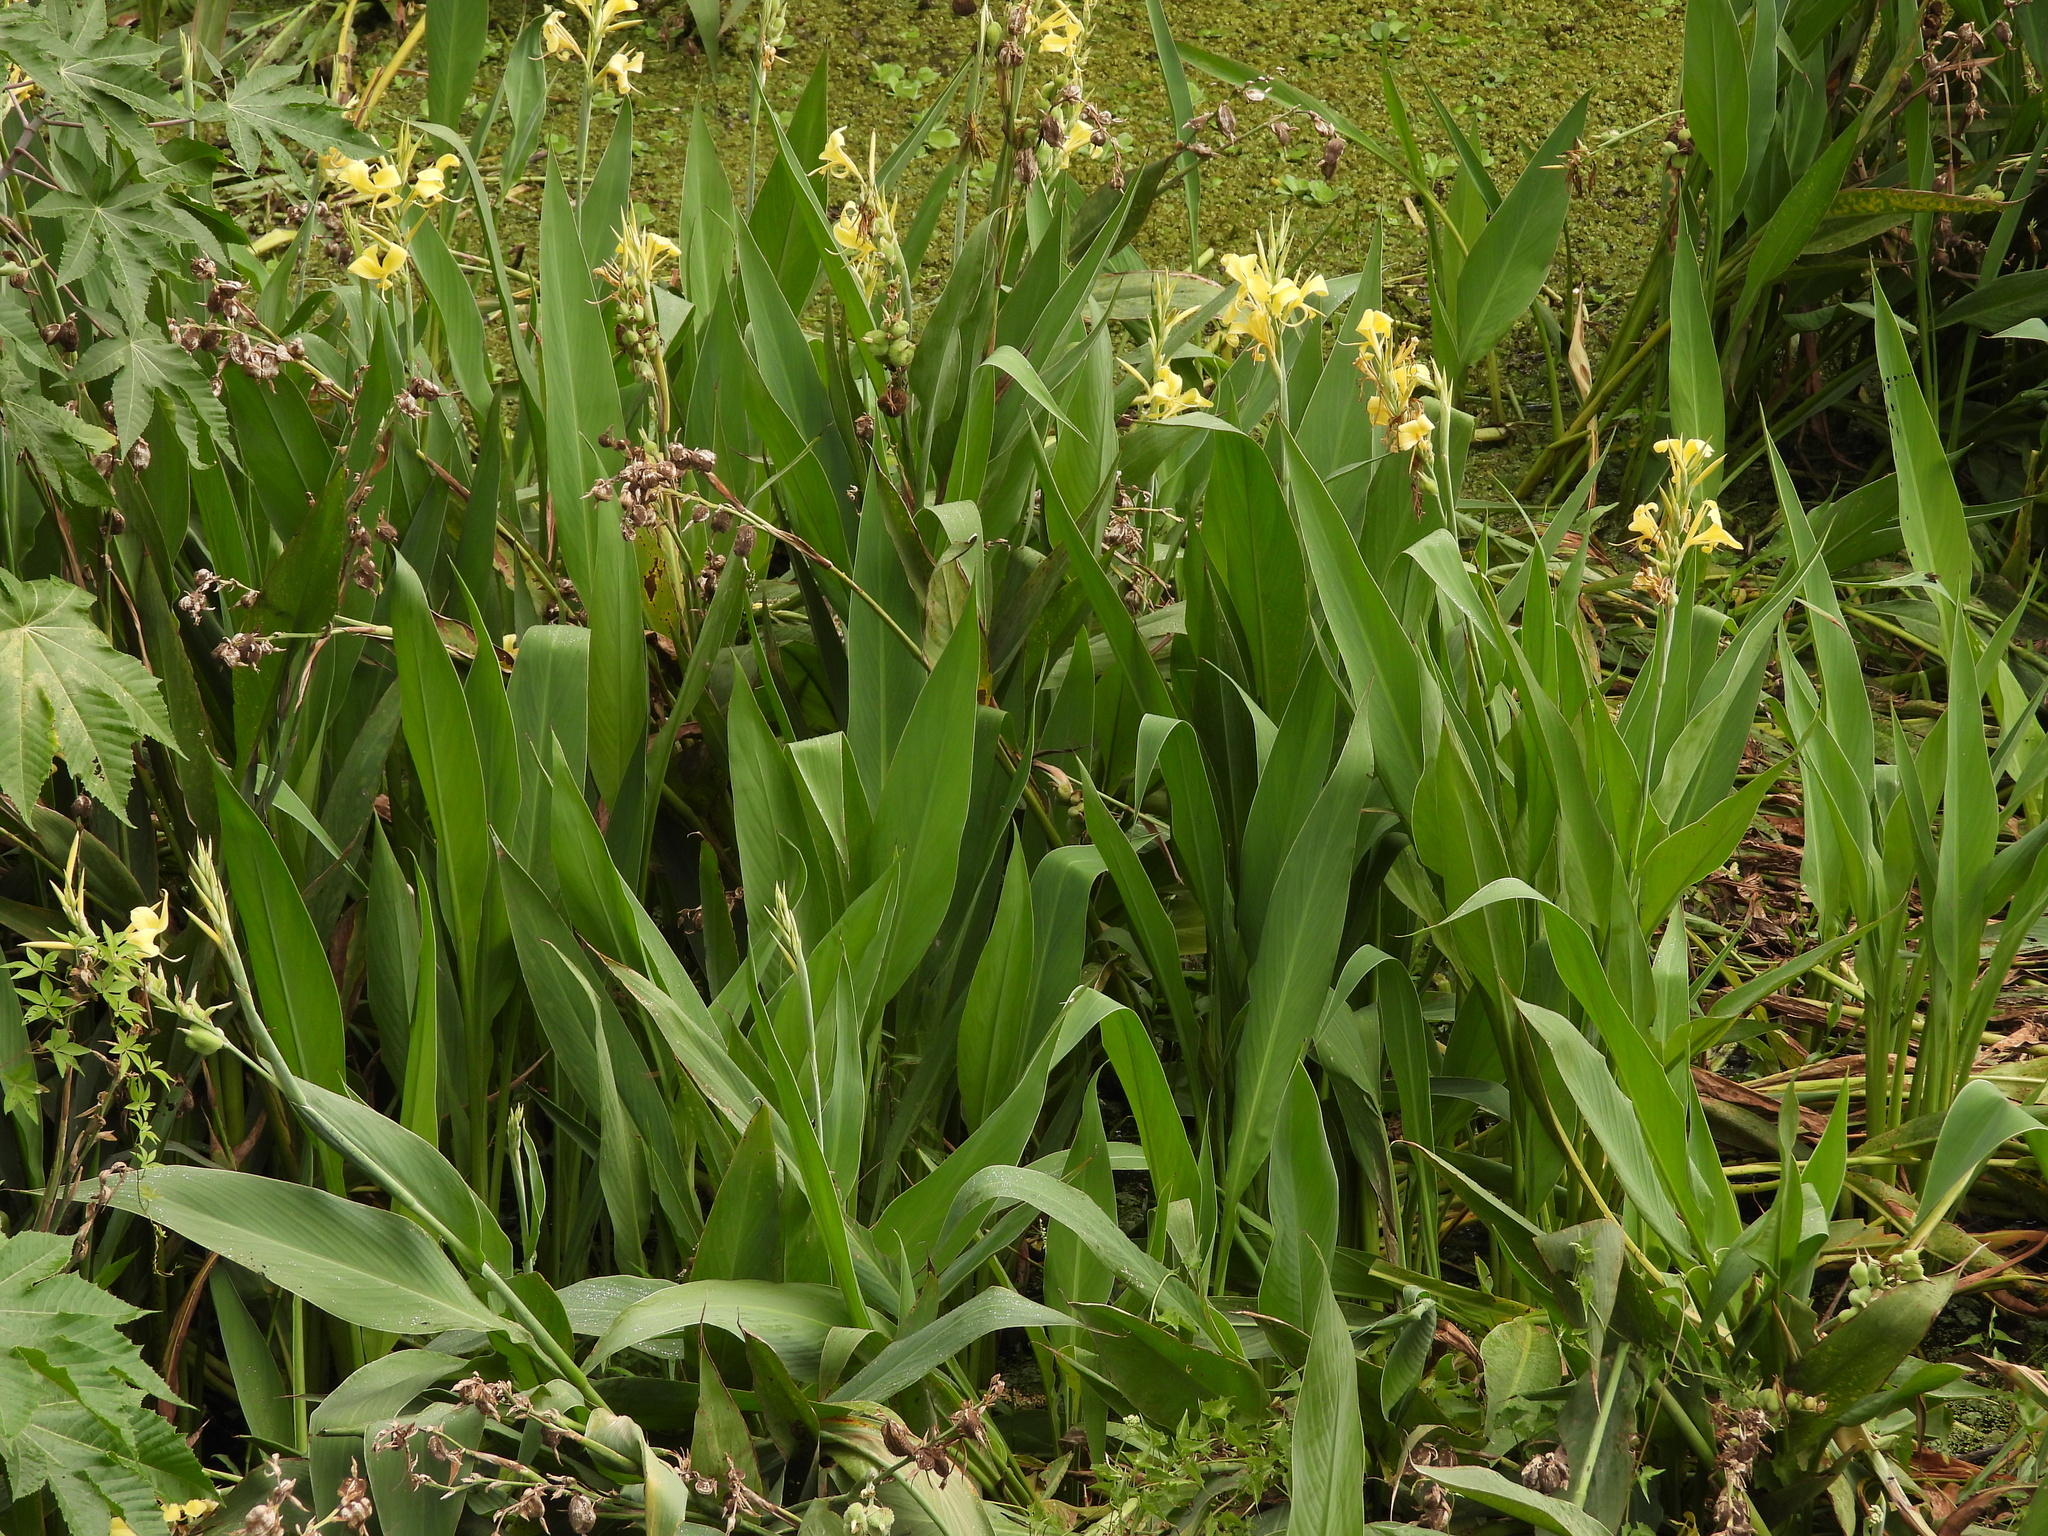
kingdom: Plantae
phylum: Tracheophyta
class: Liliopsida
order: Zingiberales
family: Cannaceae
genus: Canna
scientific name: Canna glauca
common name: Louisiana canna
